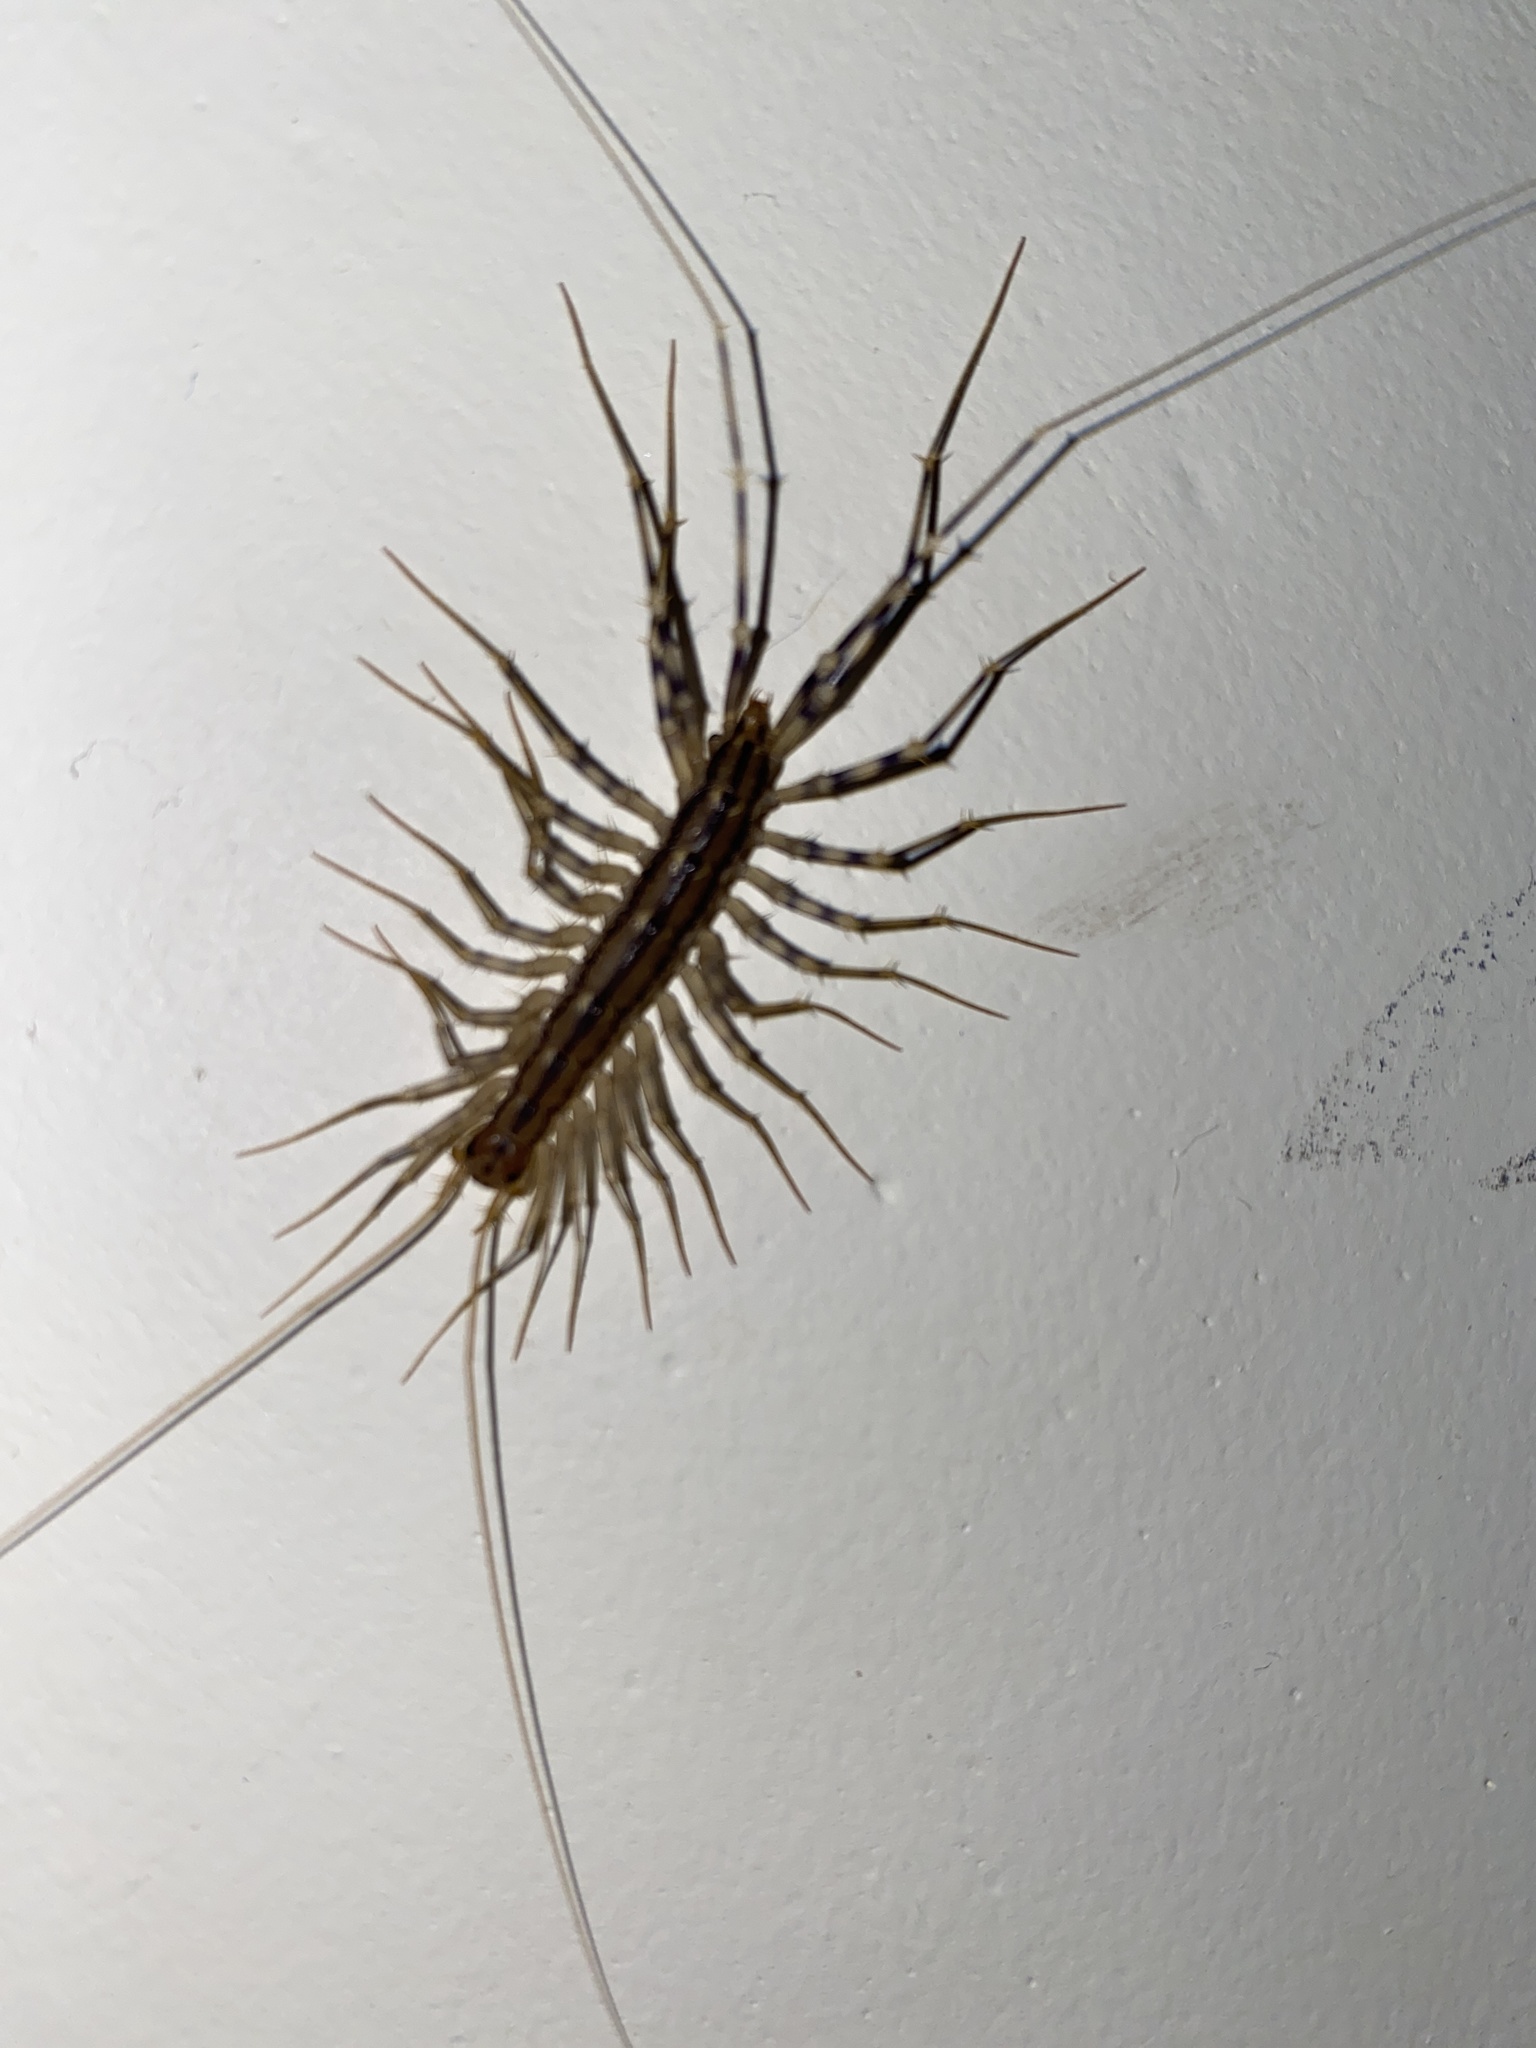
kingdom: Animalia
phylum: Arthropoda
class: Chilopoda
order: Scutigeromorpha
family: Scutigeridae
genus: Scutigera
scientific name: Scutigera coleoptrata
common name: House centipede
